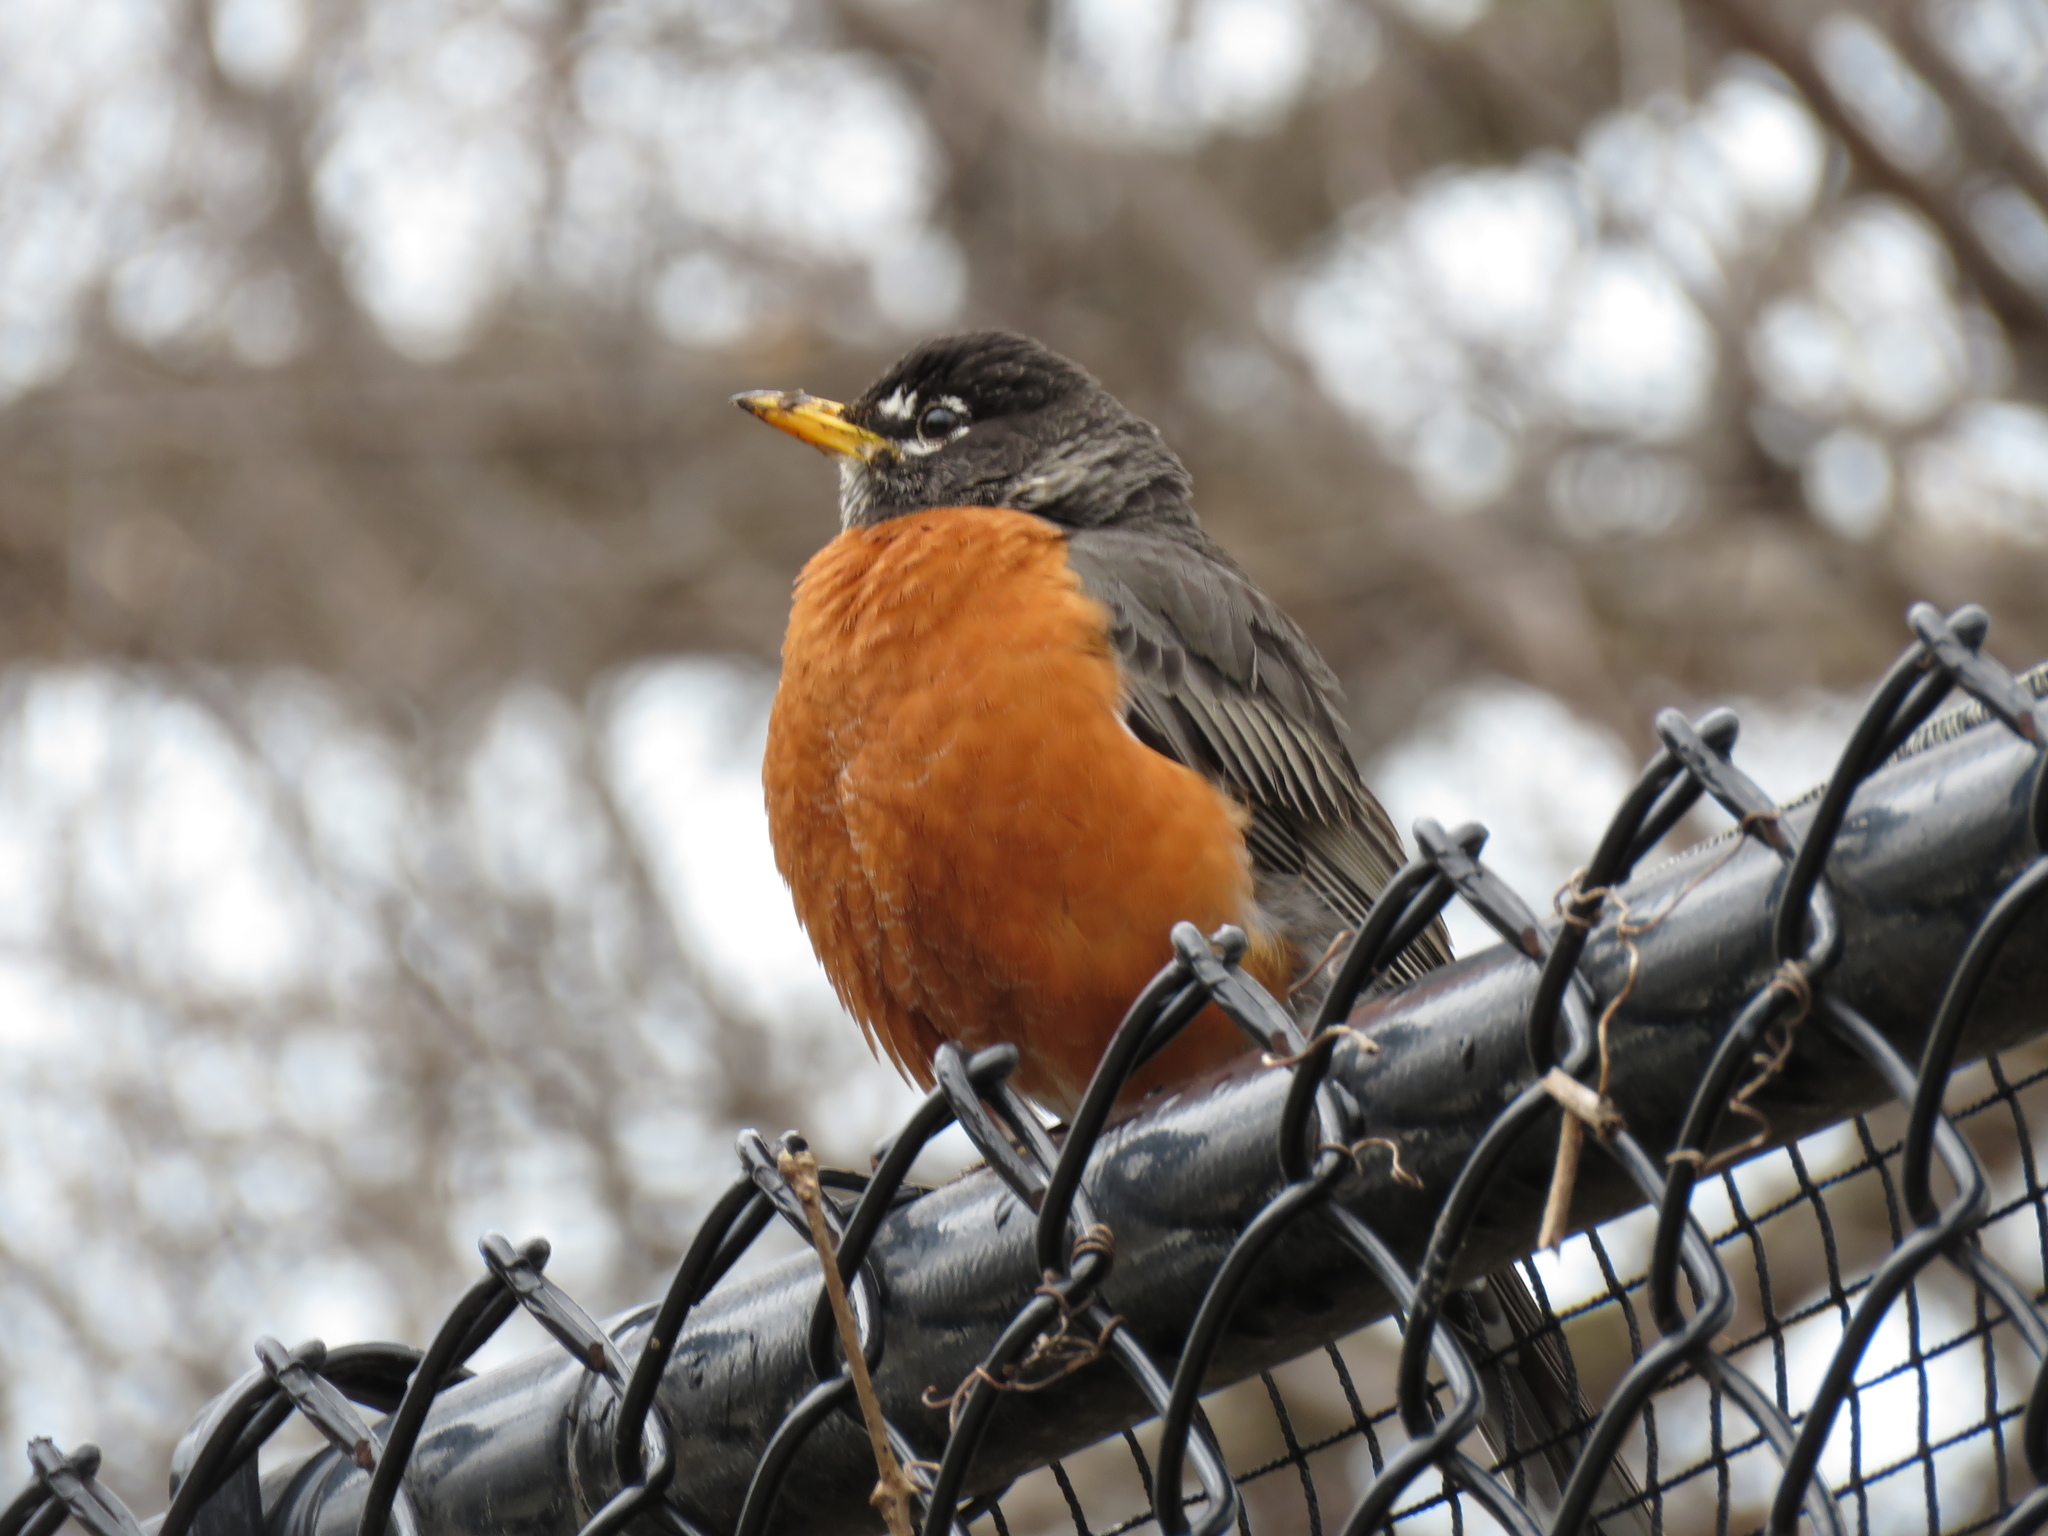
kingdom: Animalia
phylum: Chordata
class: Aves
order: Passeriformes
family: Turdidae
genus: Turdus
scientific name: Turdus migratorius
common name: American robin
